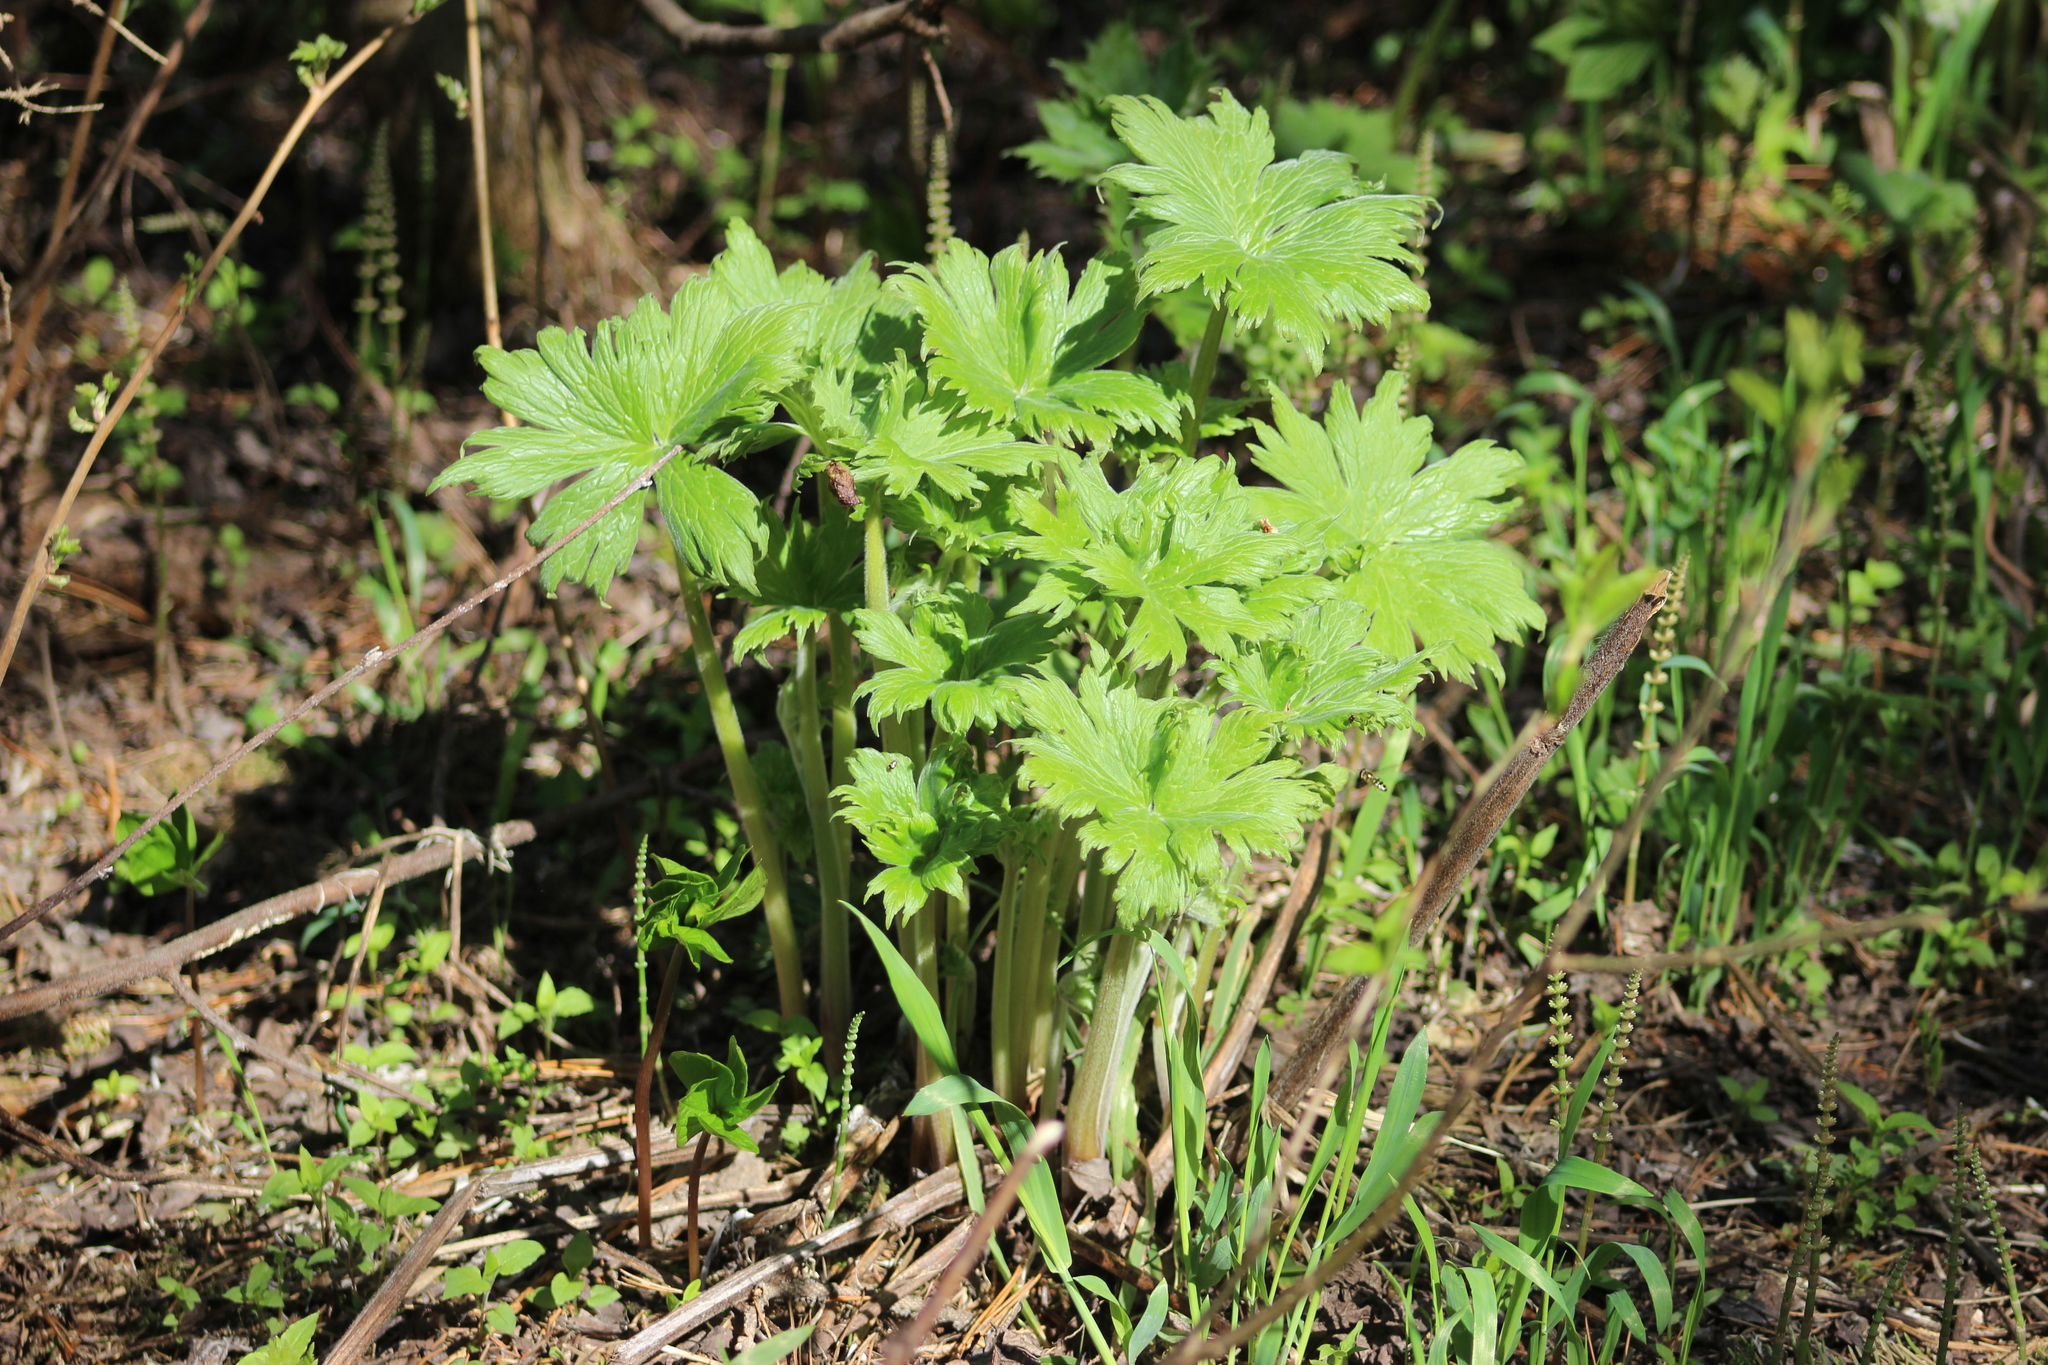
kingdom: Plantae
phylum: Tracheophyta
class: Magnoliopsida
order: Ranunculales
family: Ranunculaceae
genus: Aconitum
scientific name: Aconitum septentrionale
